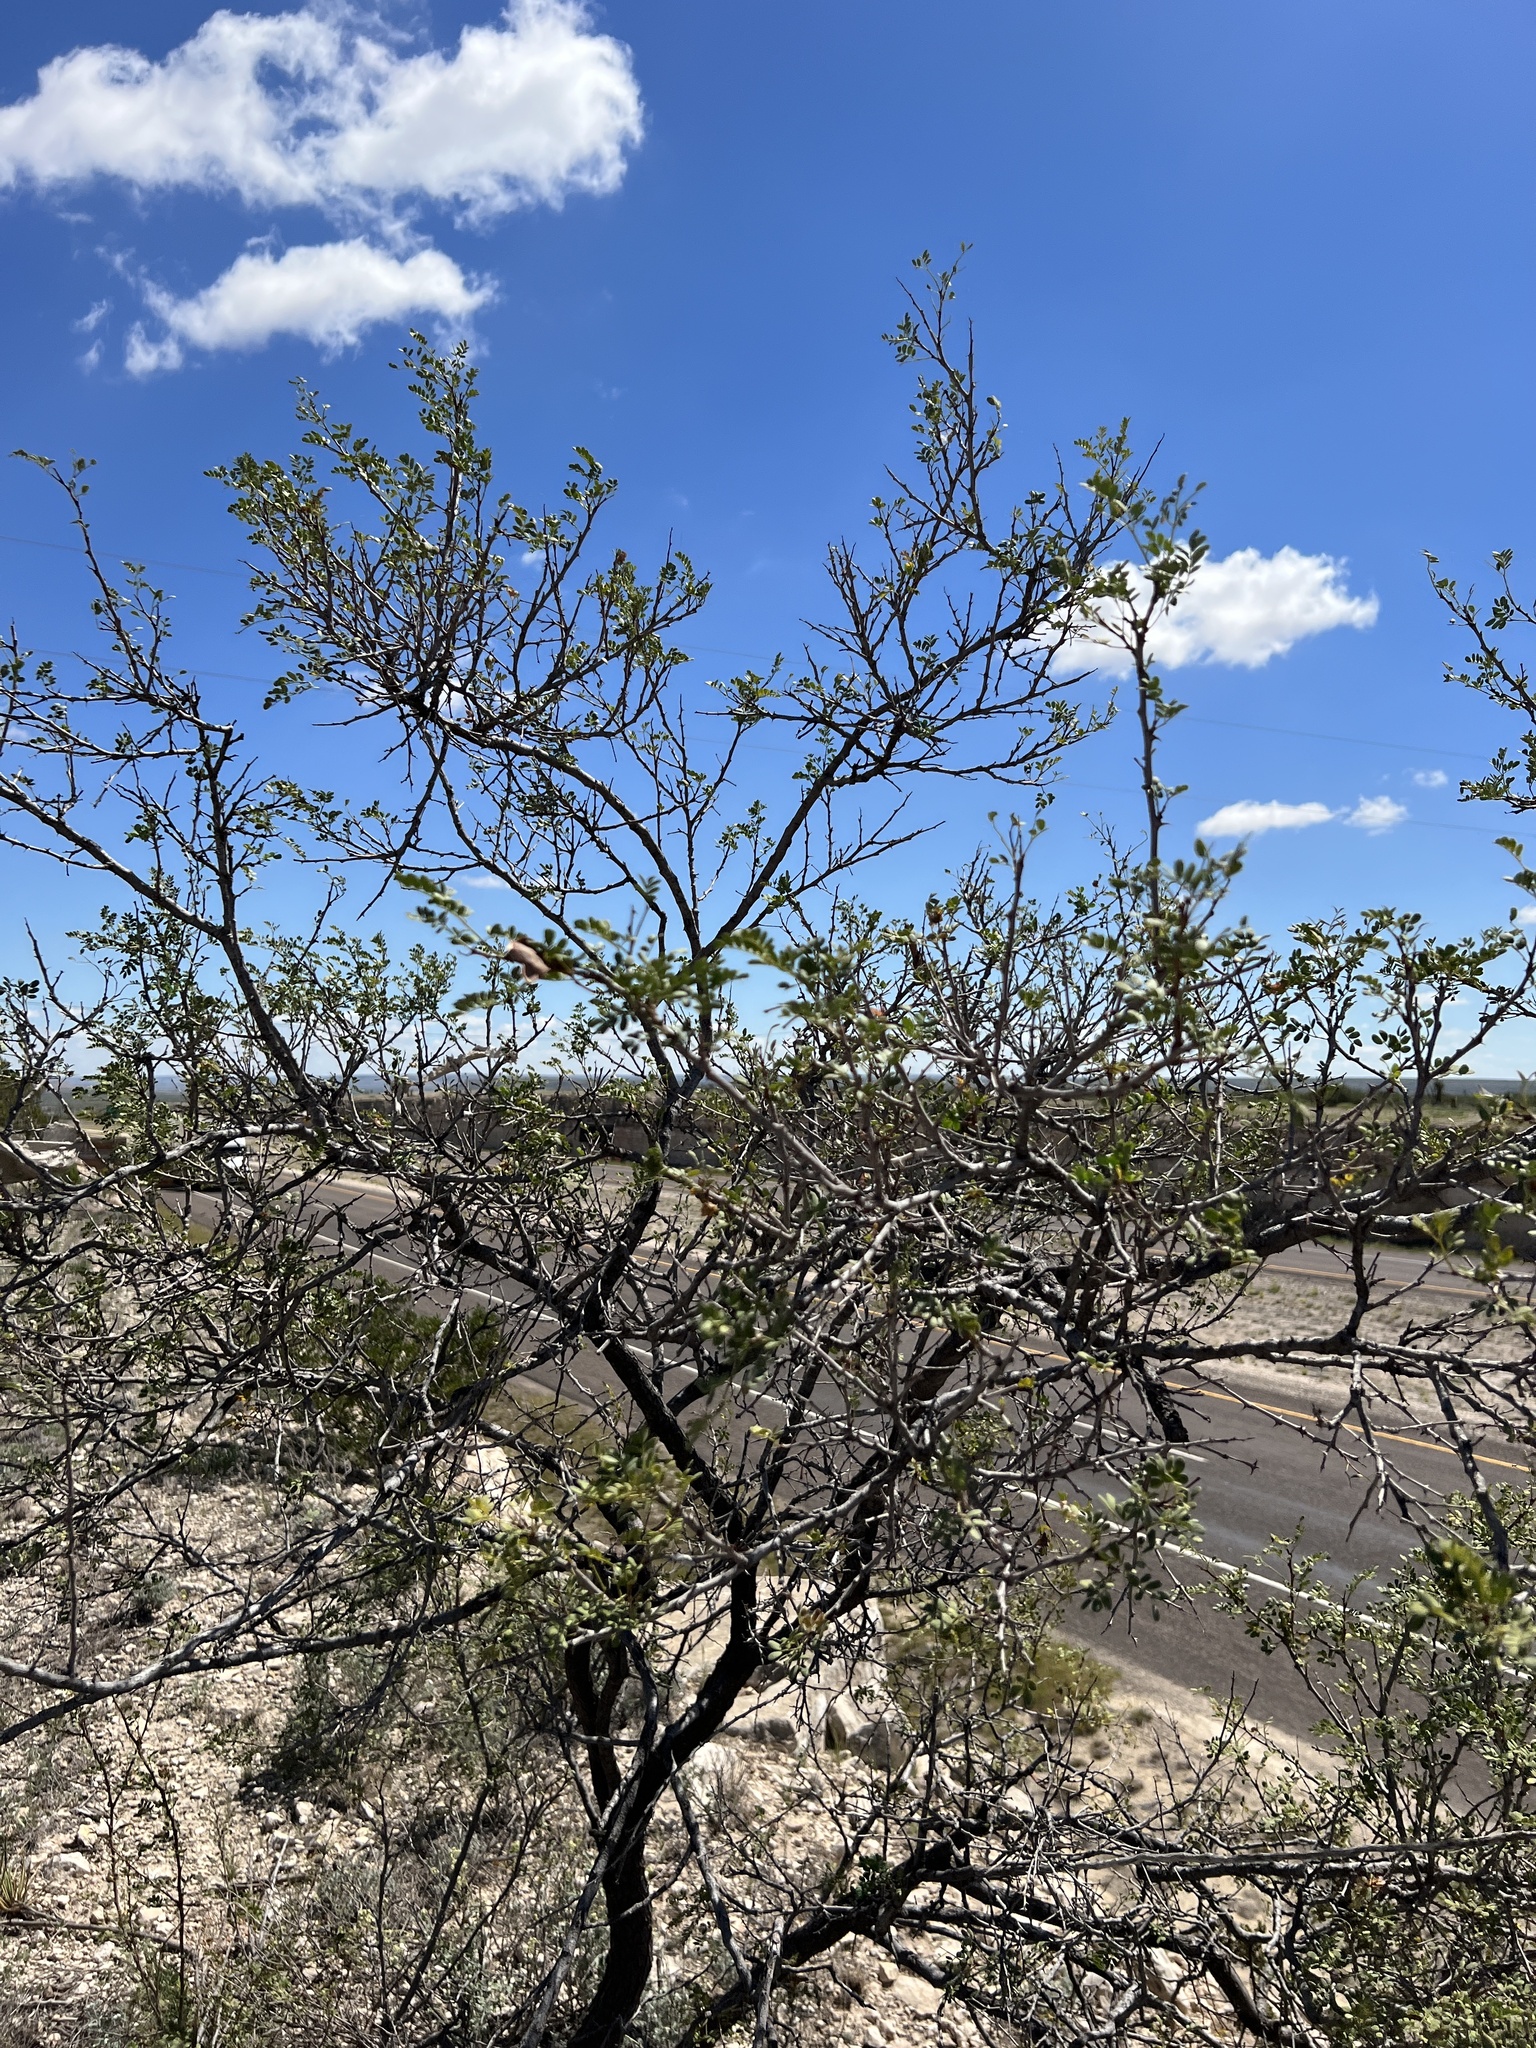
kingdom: Plantae
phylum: Tracheophyta
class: Magnoliopsida
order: Fabales
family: Fabaceae
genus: Senegalia
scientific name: Senegalia roemeriana
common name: Roemer's acacia
